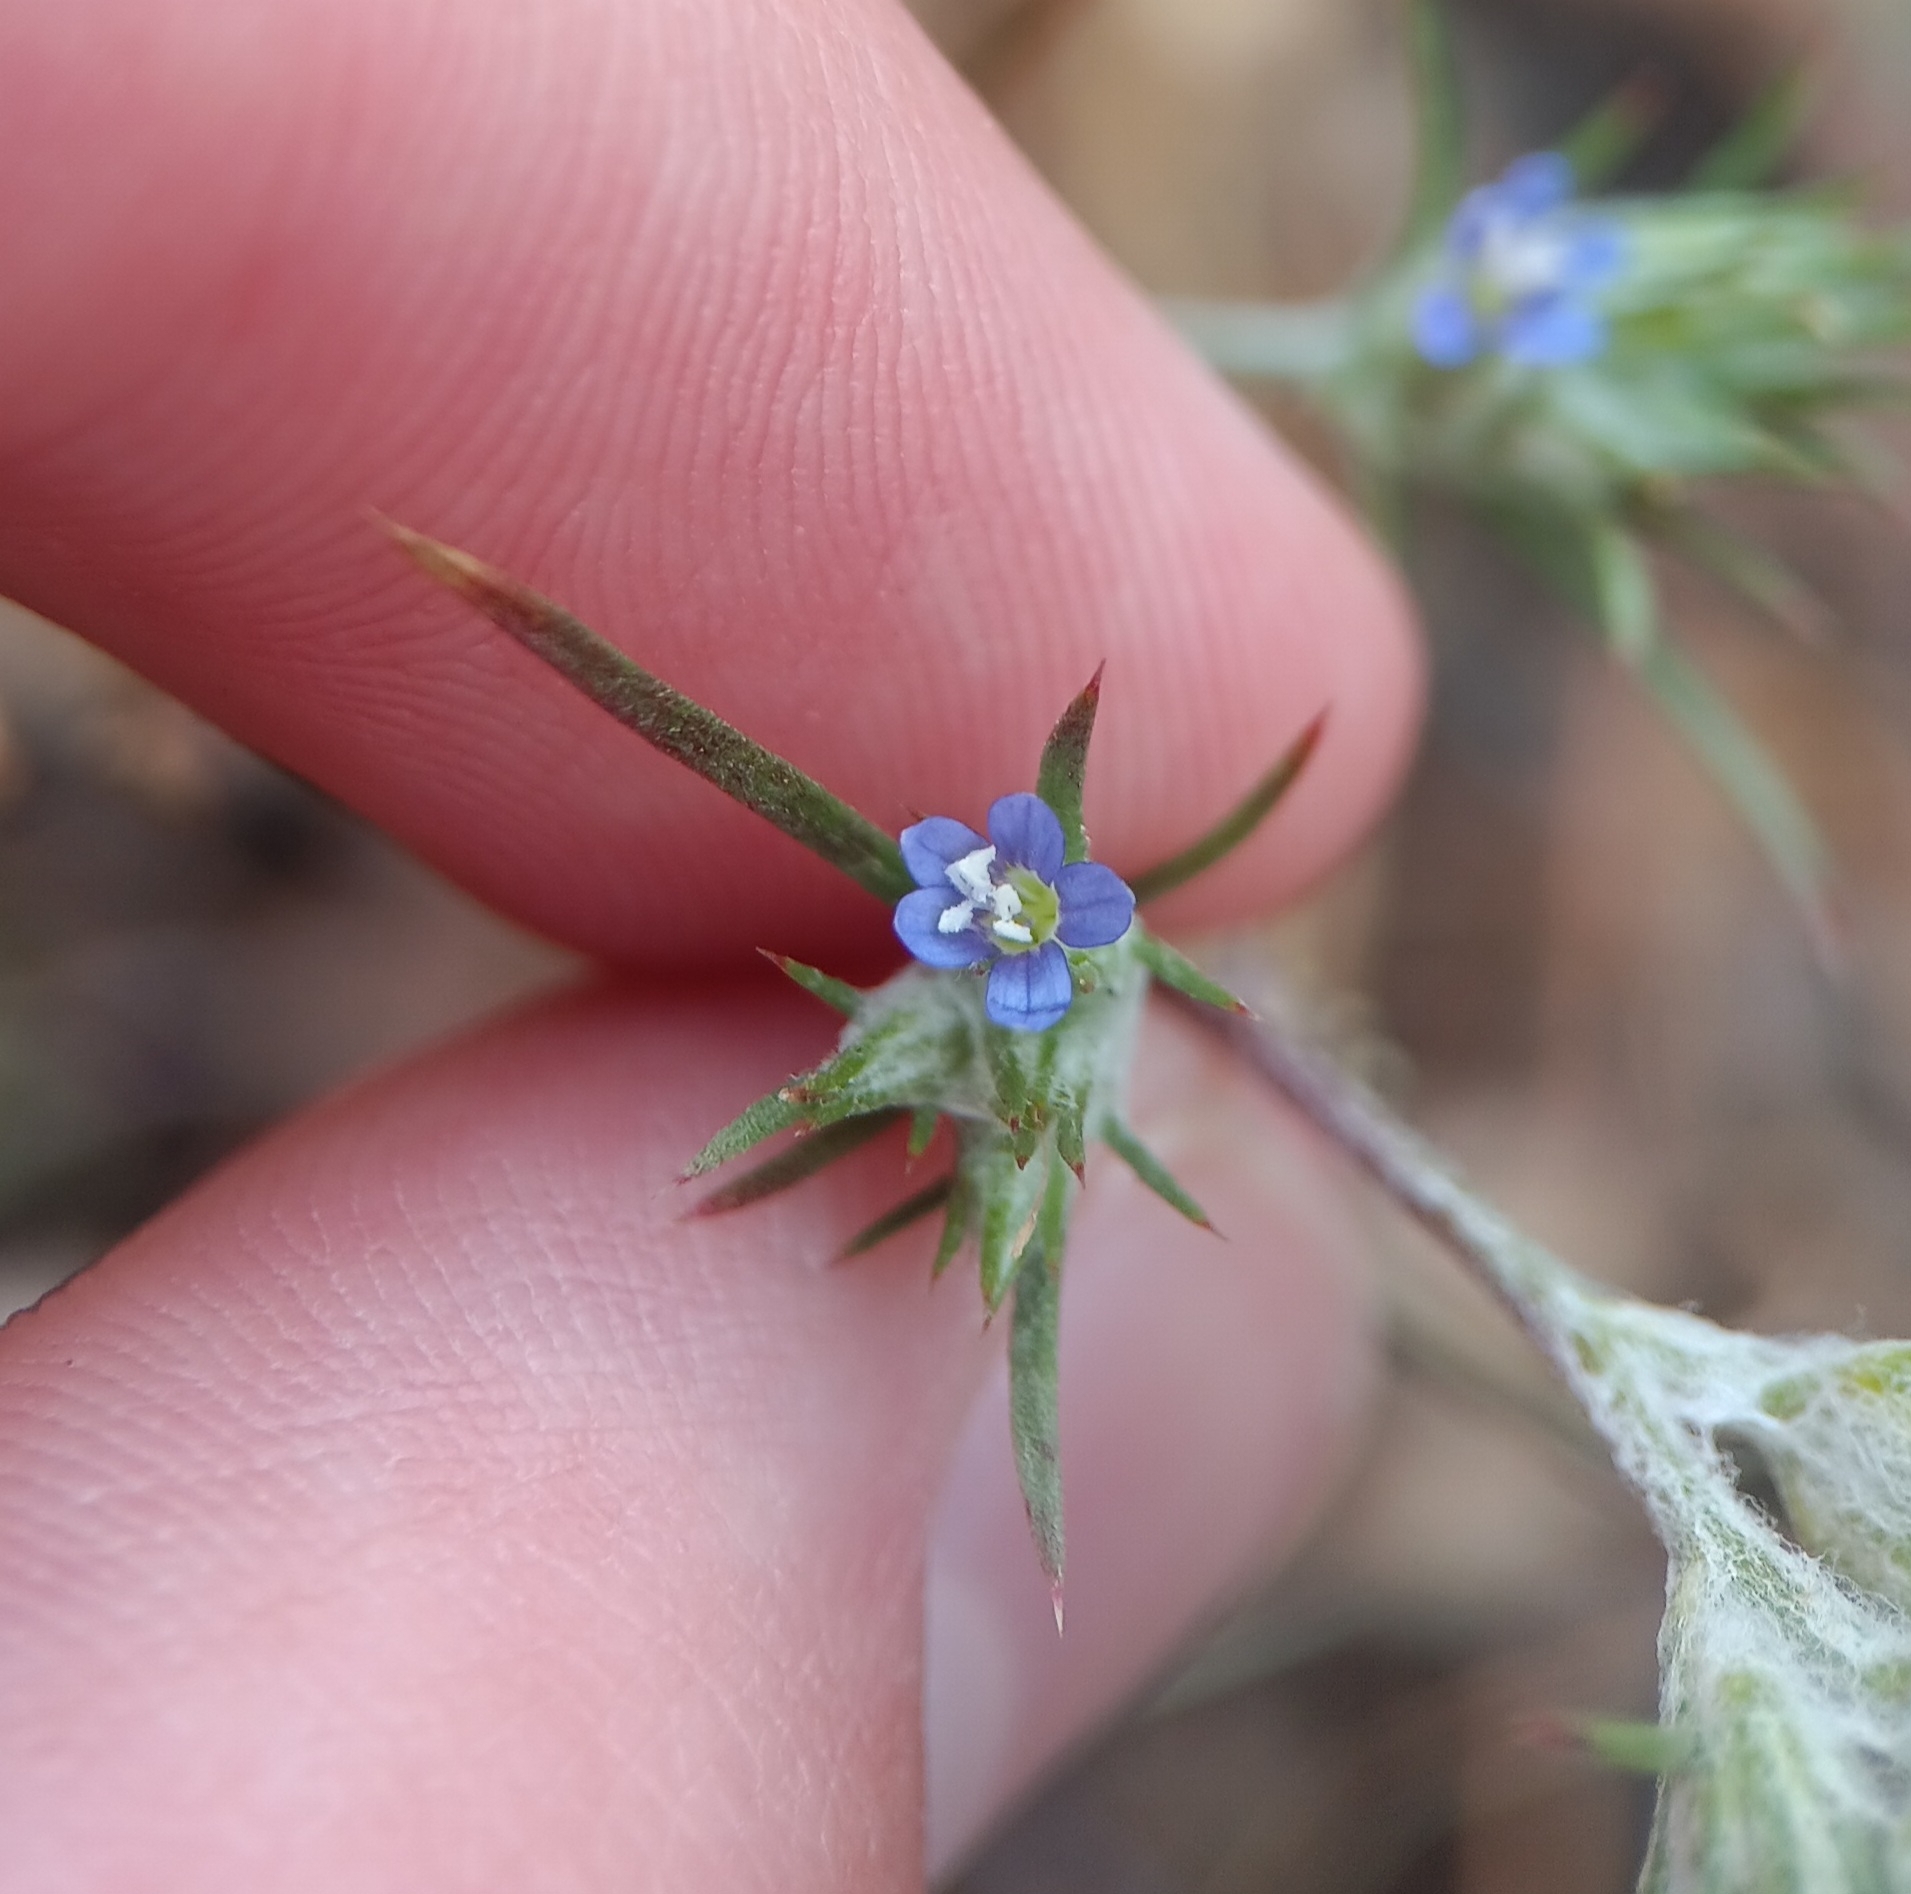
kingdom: Plantae
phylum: Tracheophyta
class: Magnoliopsida
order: Ericales
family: Polemoniaceae
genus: Eriastrum
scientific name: Eriastrum filifolium
